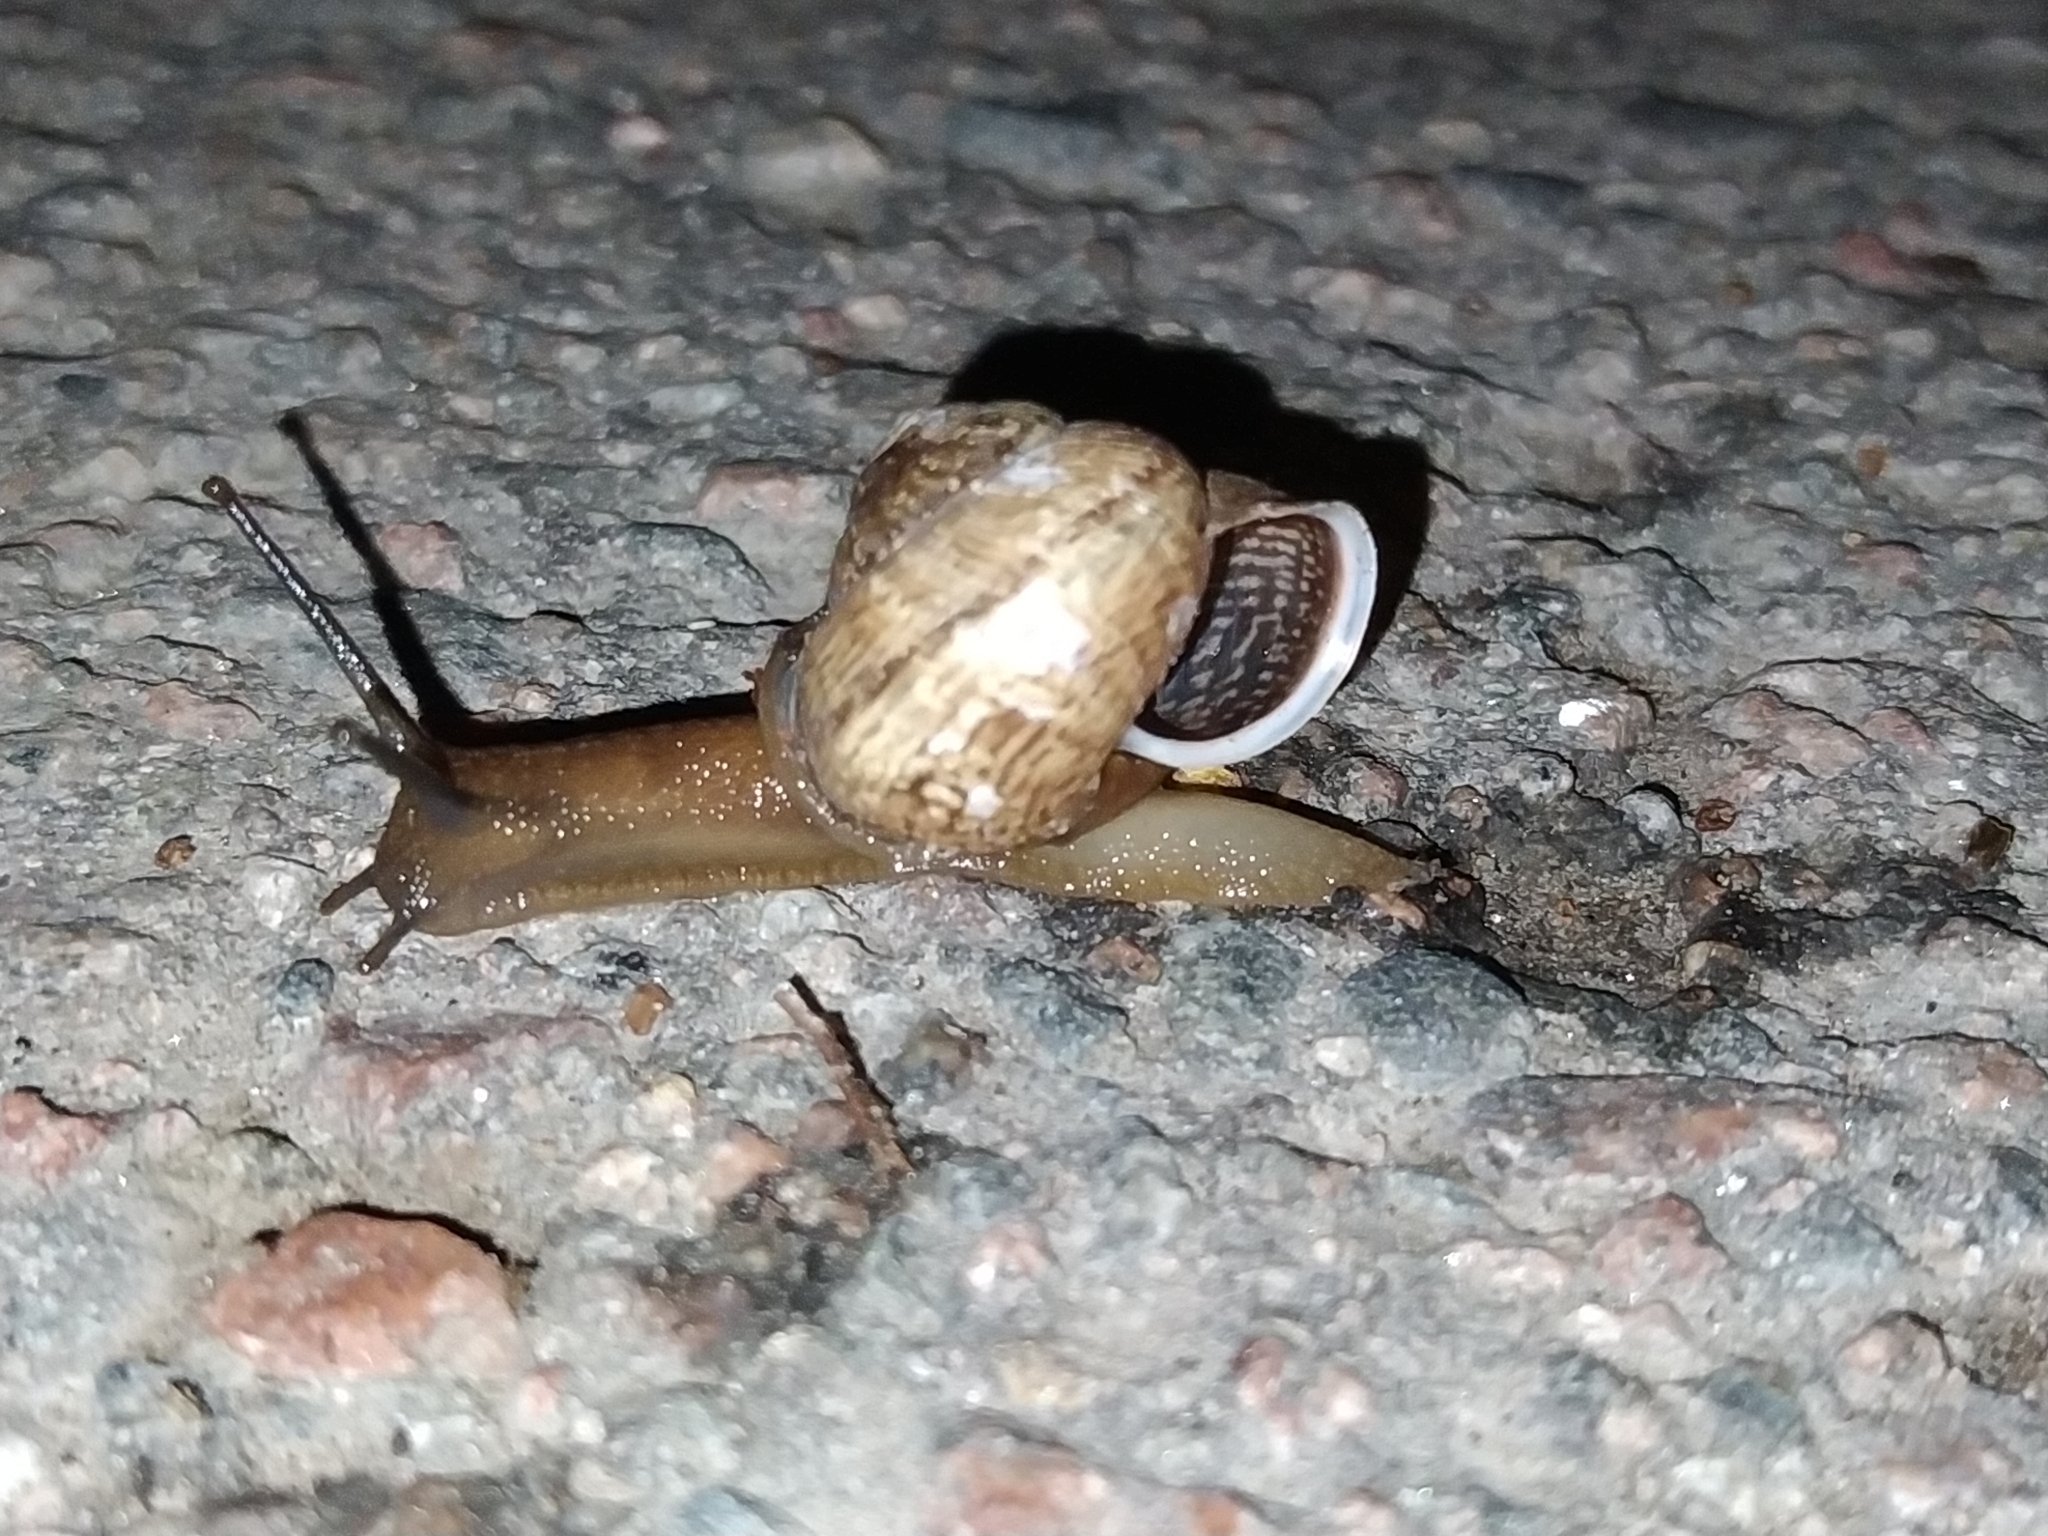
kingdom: Animalia
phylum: Mollusca
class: Gastropoda
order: Stylommatophora
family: Helicidae
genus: Arianta
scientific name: Arianta arbustorum
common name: Copse snail
